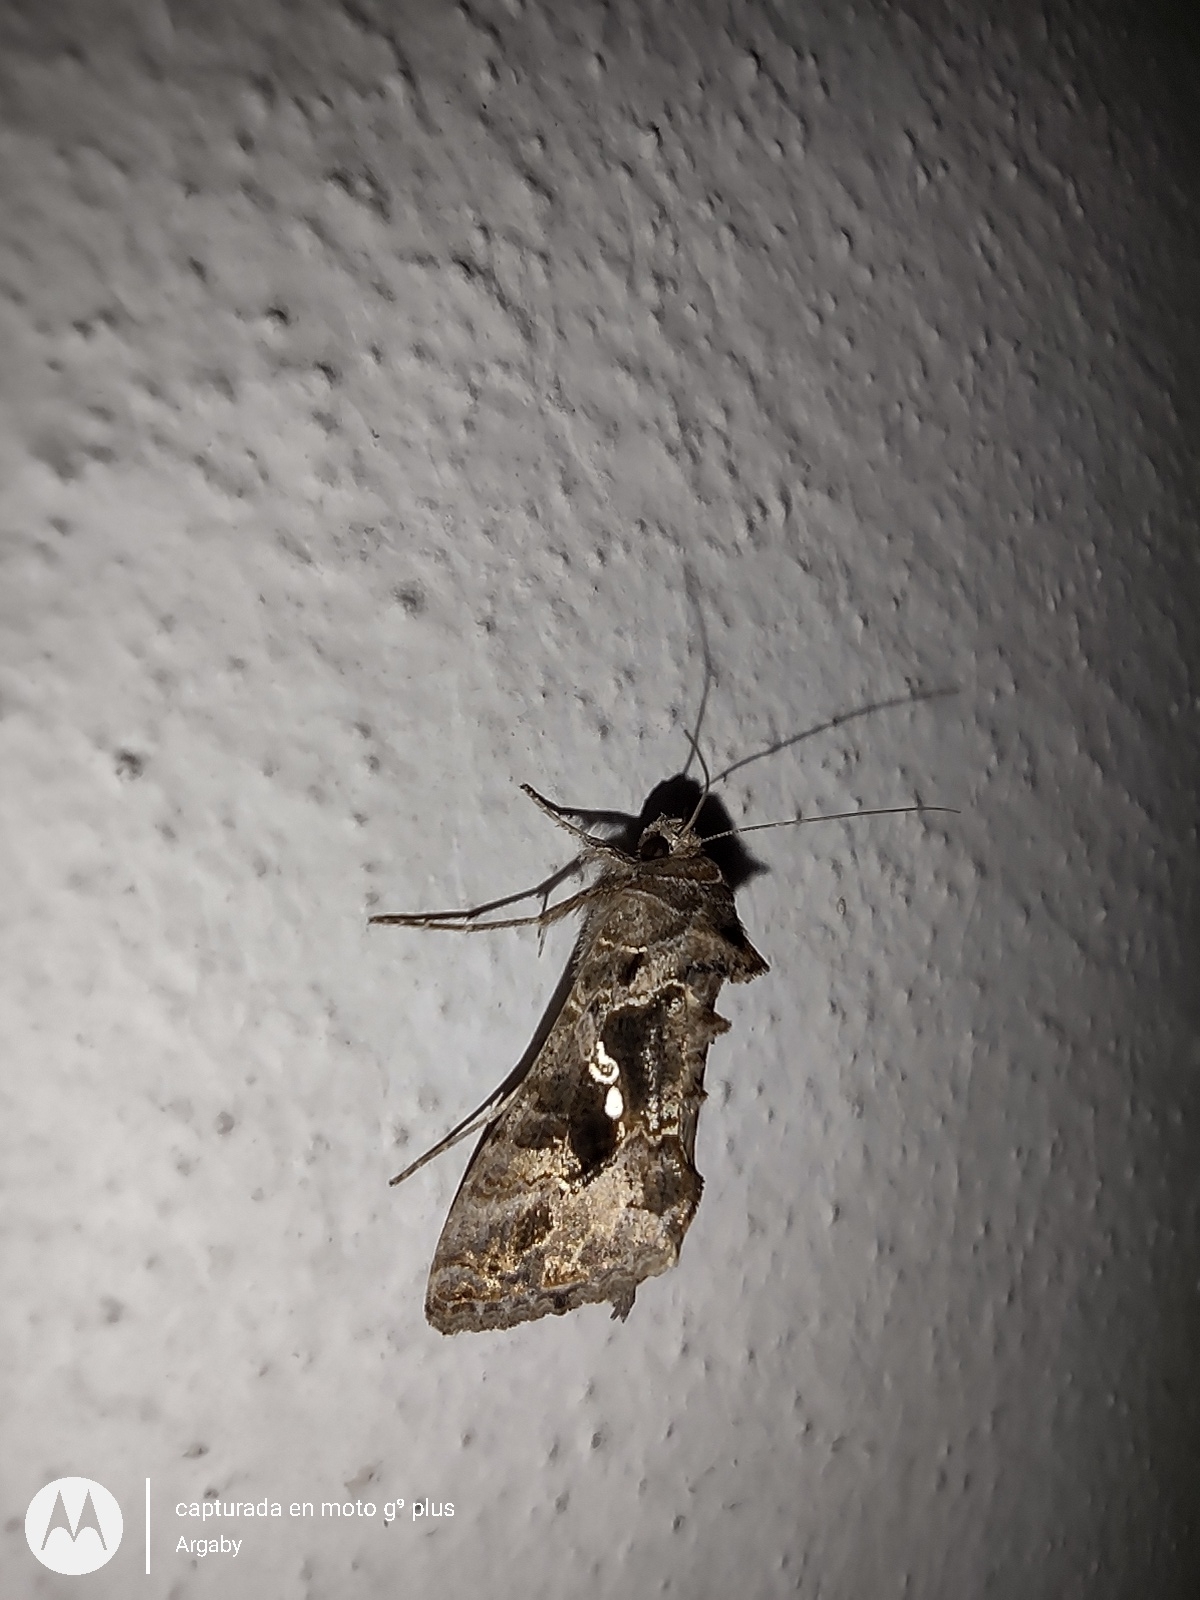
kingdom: Animalia
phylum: Arthropoda
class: Insecta
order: Lepidoptera
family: Noctuidae
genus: Chrysodeixis
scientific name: Chrysodeixis includens
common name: Cutworm moth
